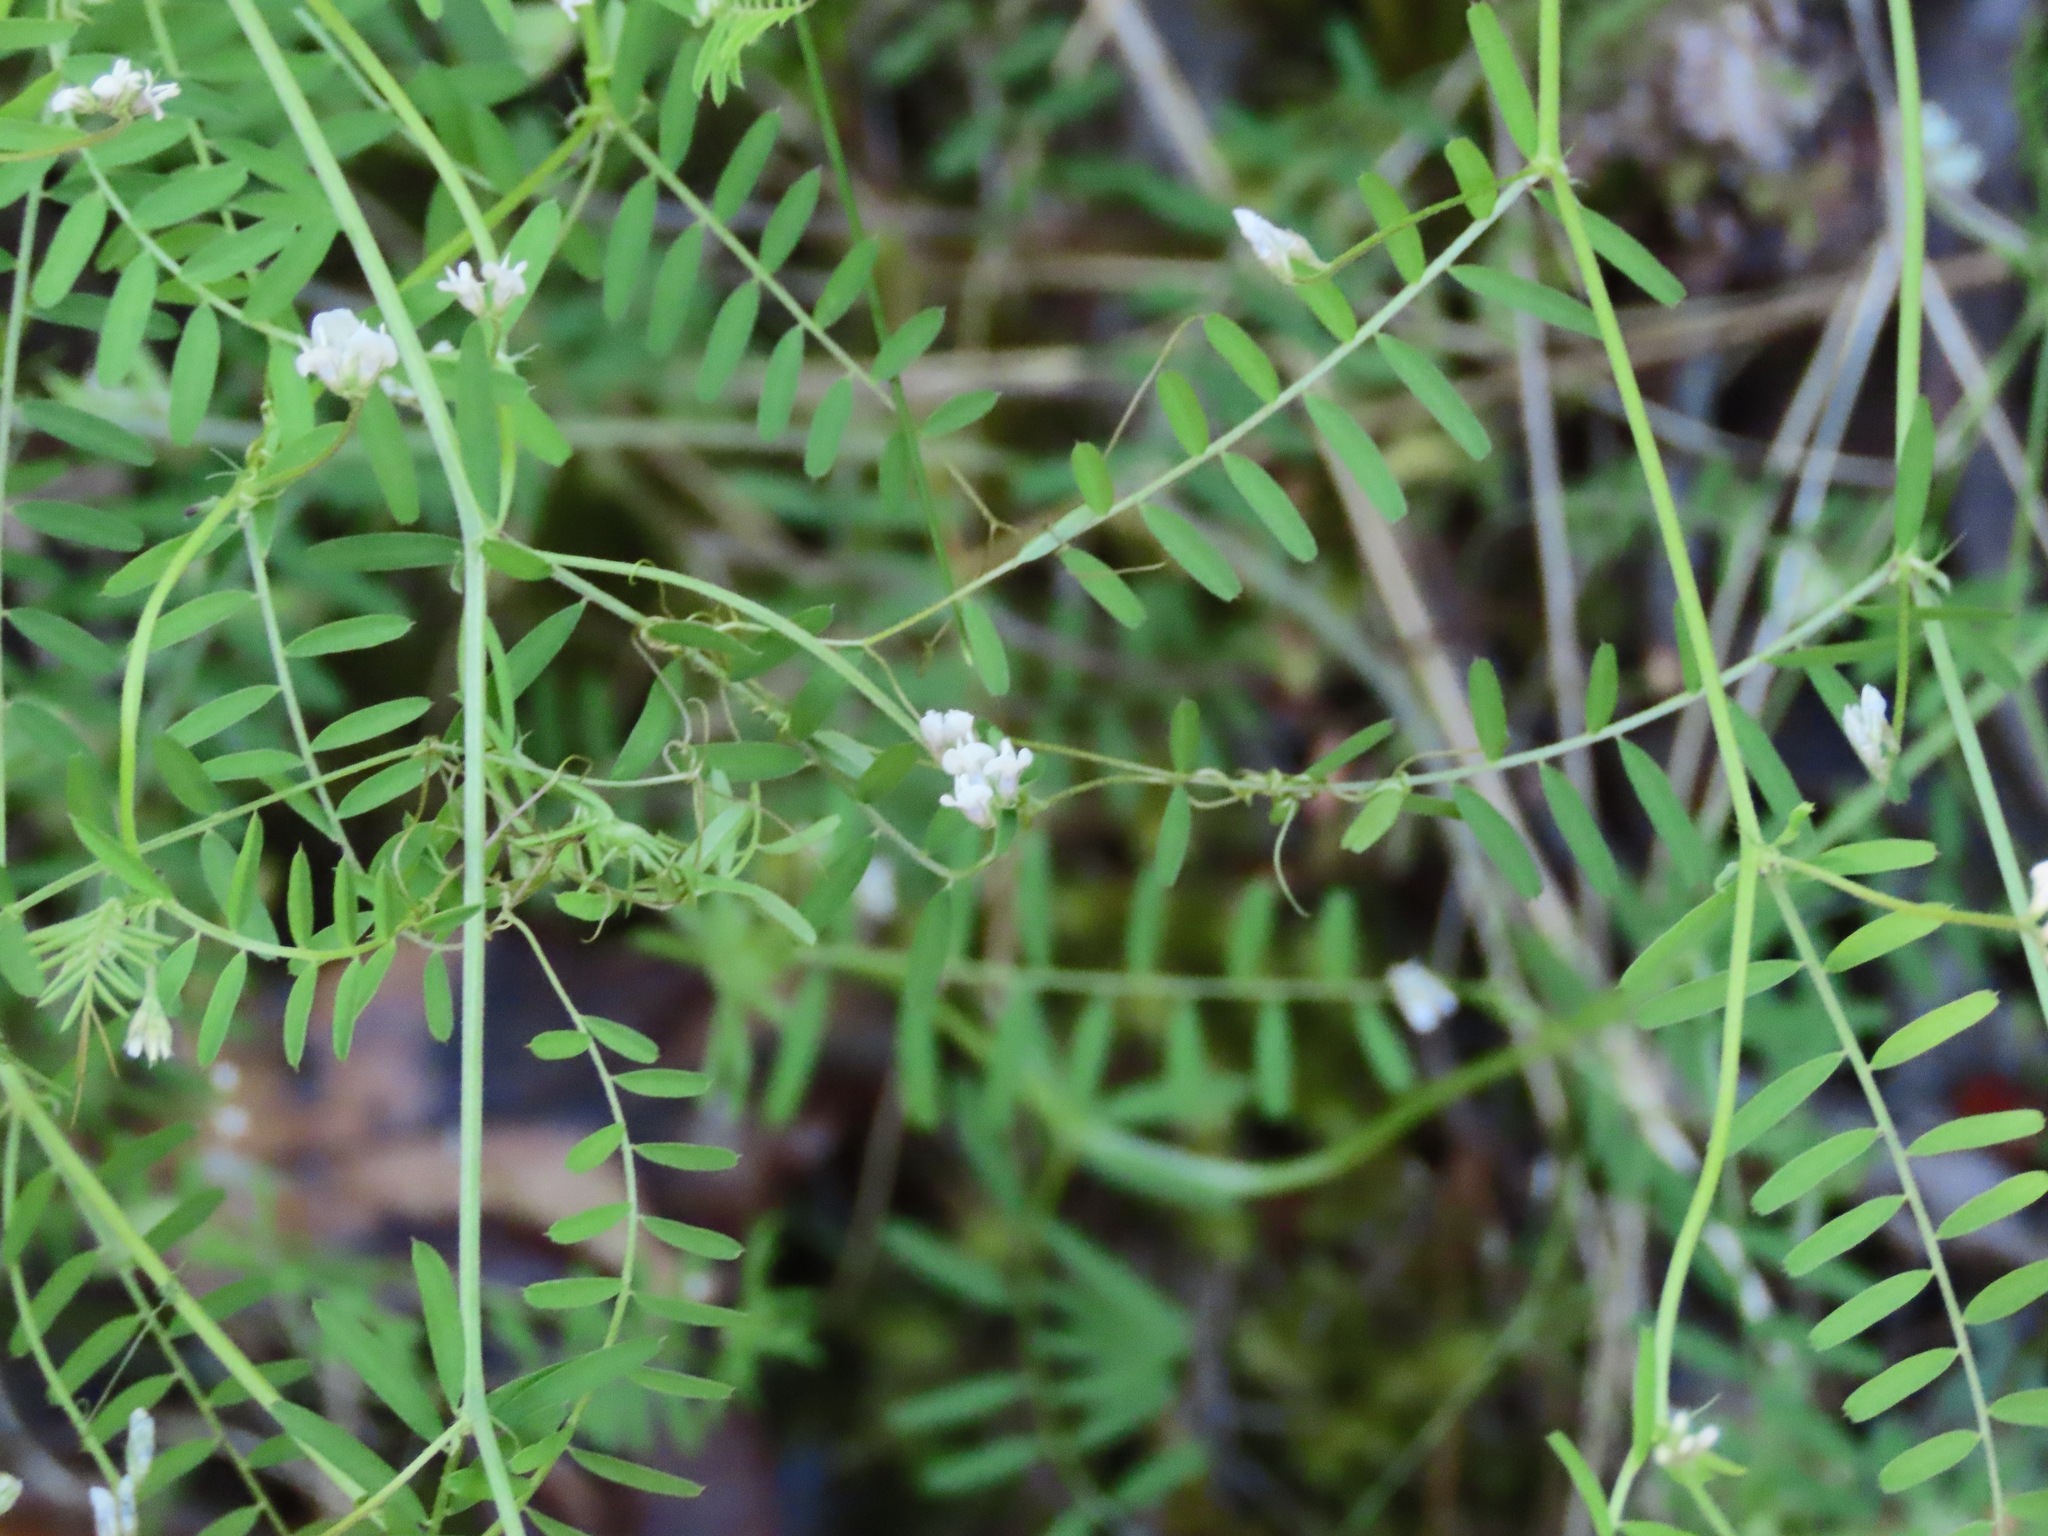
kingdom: Plantae
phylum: Tracheophyta
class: Magnoliopsida
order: Fabales
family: Fabaceae
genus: Vicia
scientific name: Vicia hirsuta
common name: Tiny vetch
